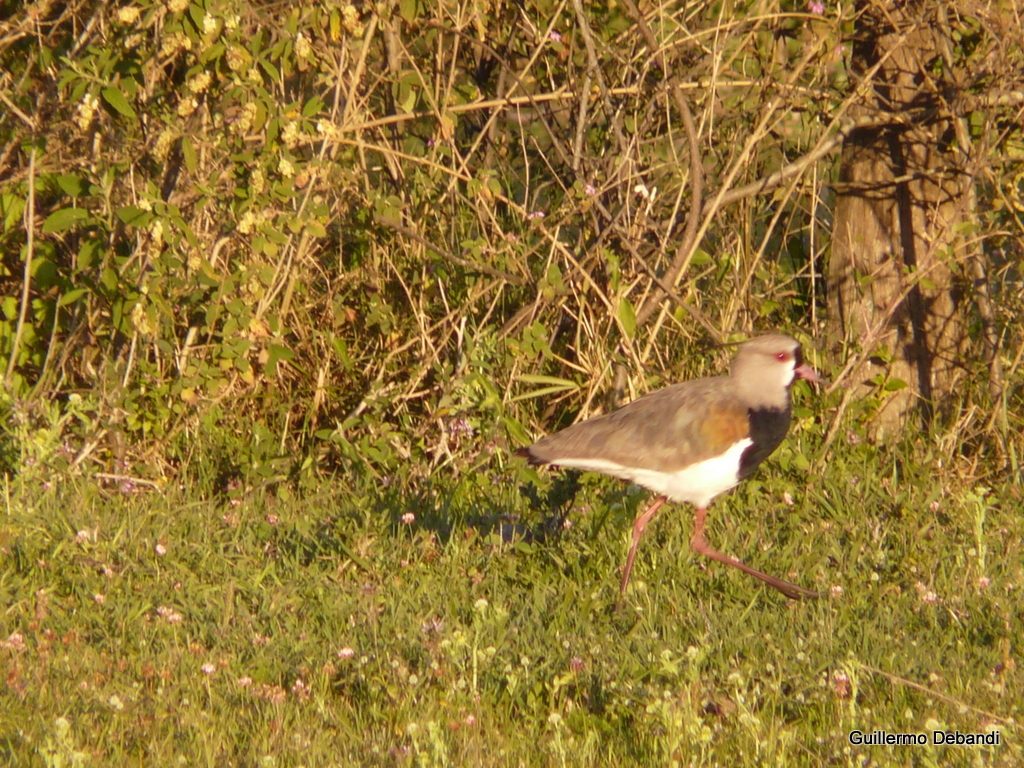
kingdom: Animalia
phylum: Chordata
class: Aves
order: Charadriiformes
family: Charadriidae
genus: Vanellus
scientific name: Vanellus chilensis
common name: Southern lapwing
